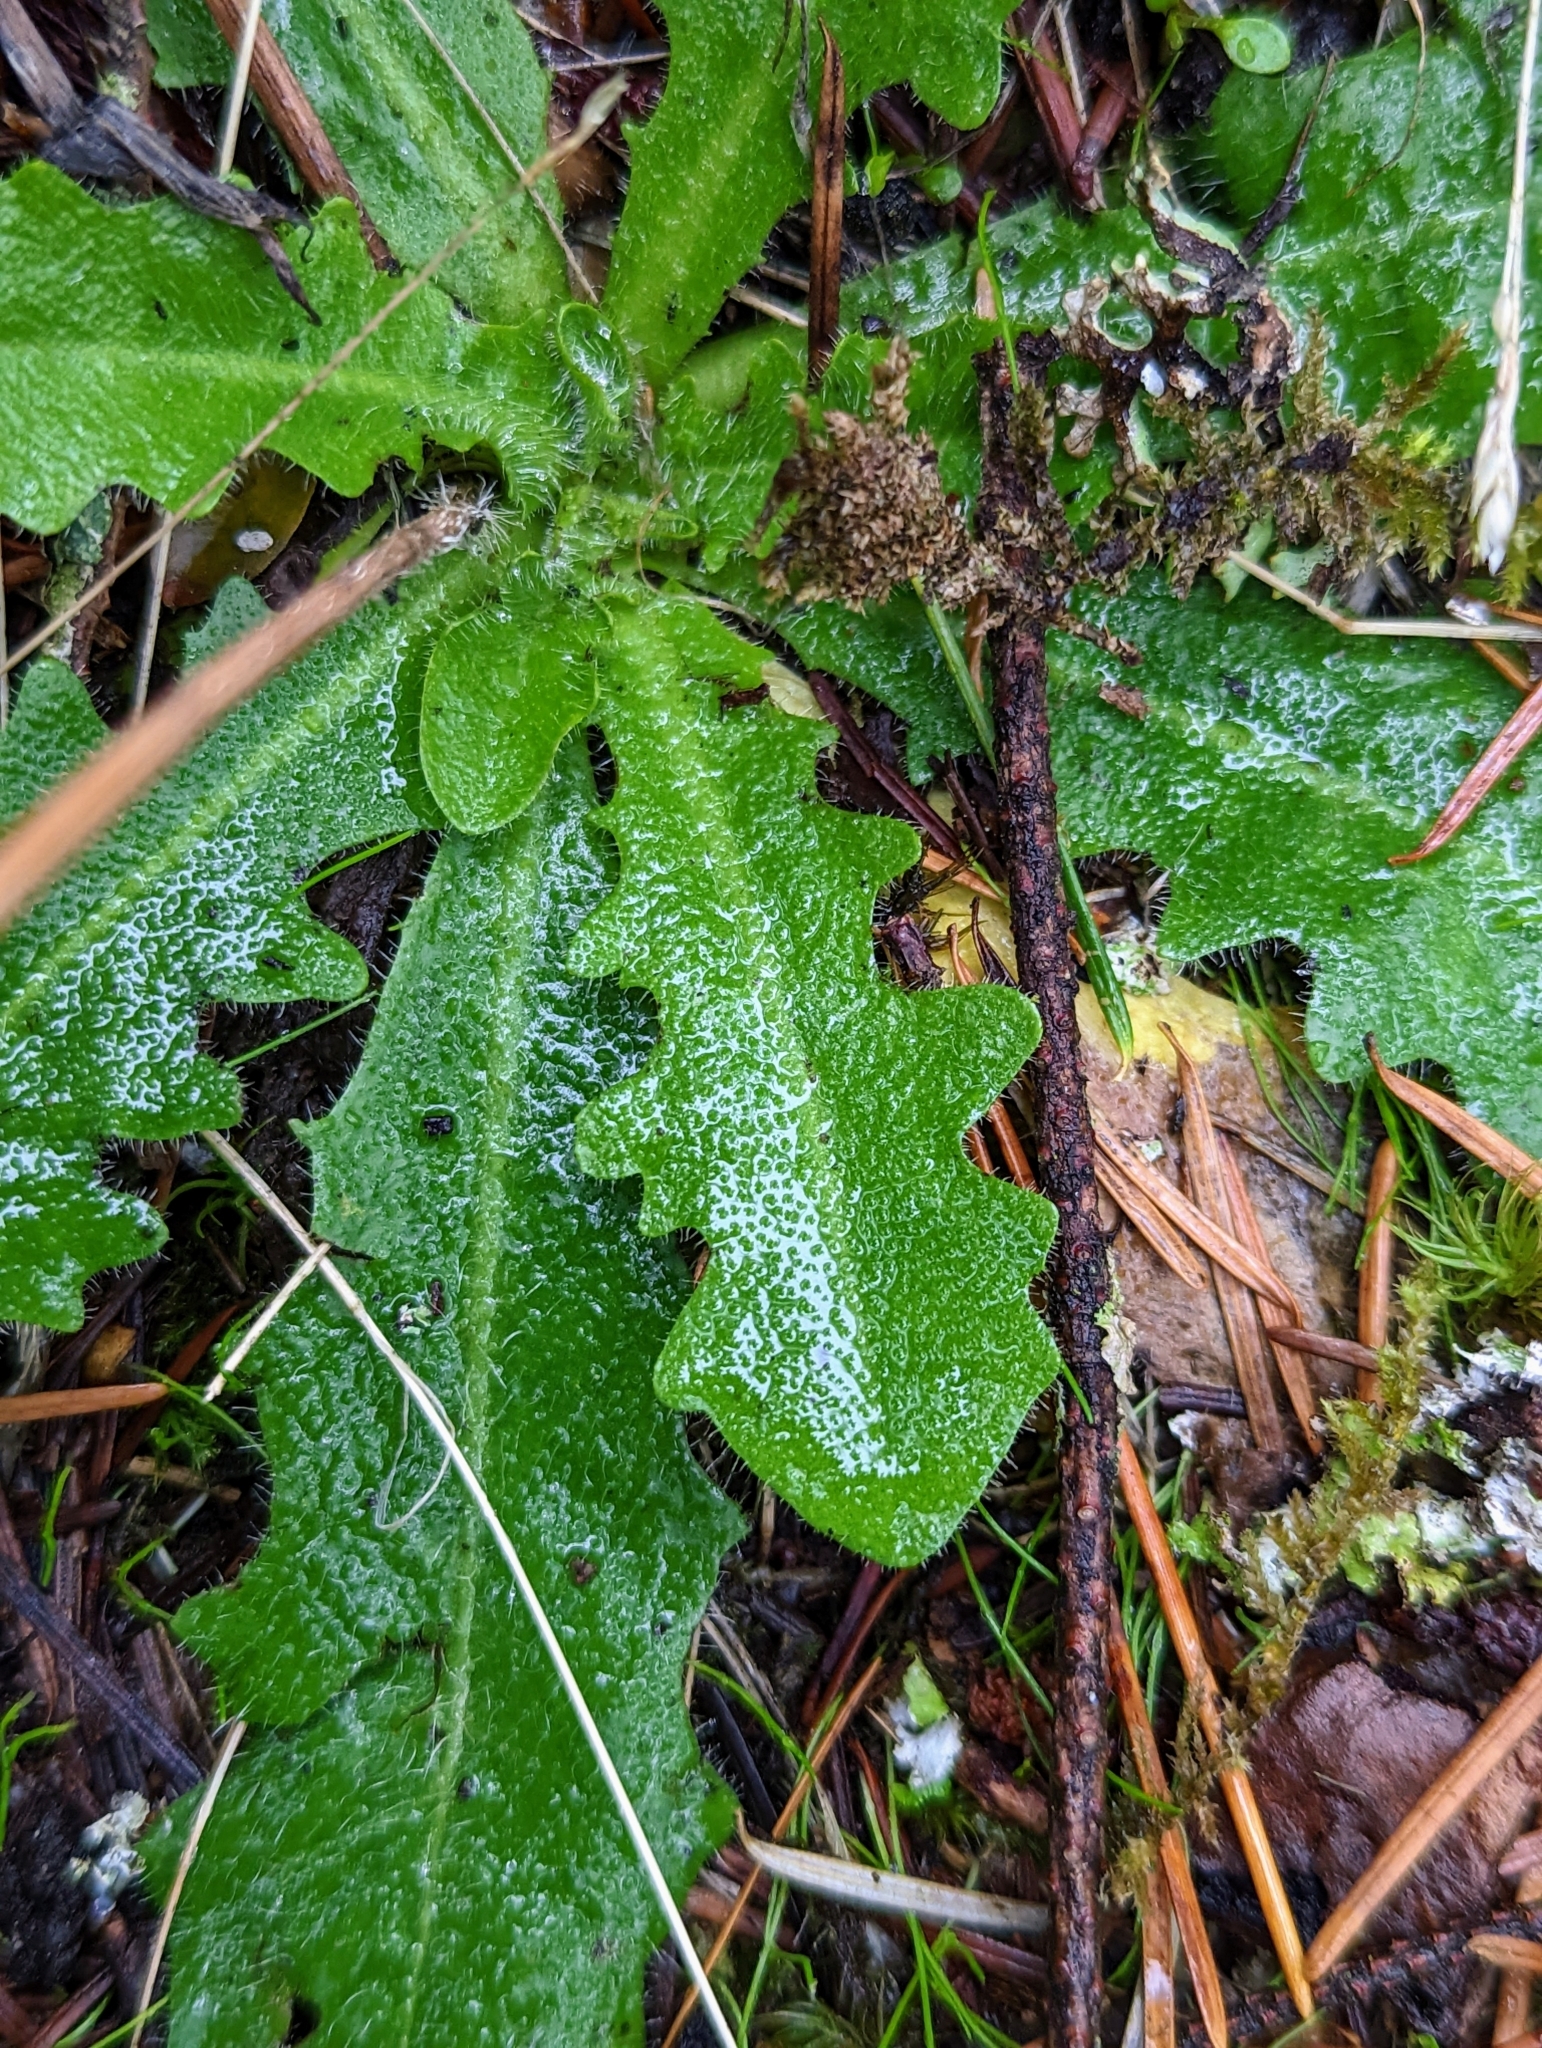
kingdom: Plantae
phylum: Tracheophyta
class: Magnoliopsida
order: Asterales
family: Asteraceae
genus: Hypochaeris
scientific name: Hypochaeris radicata
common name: Flatweed
